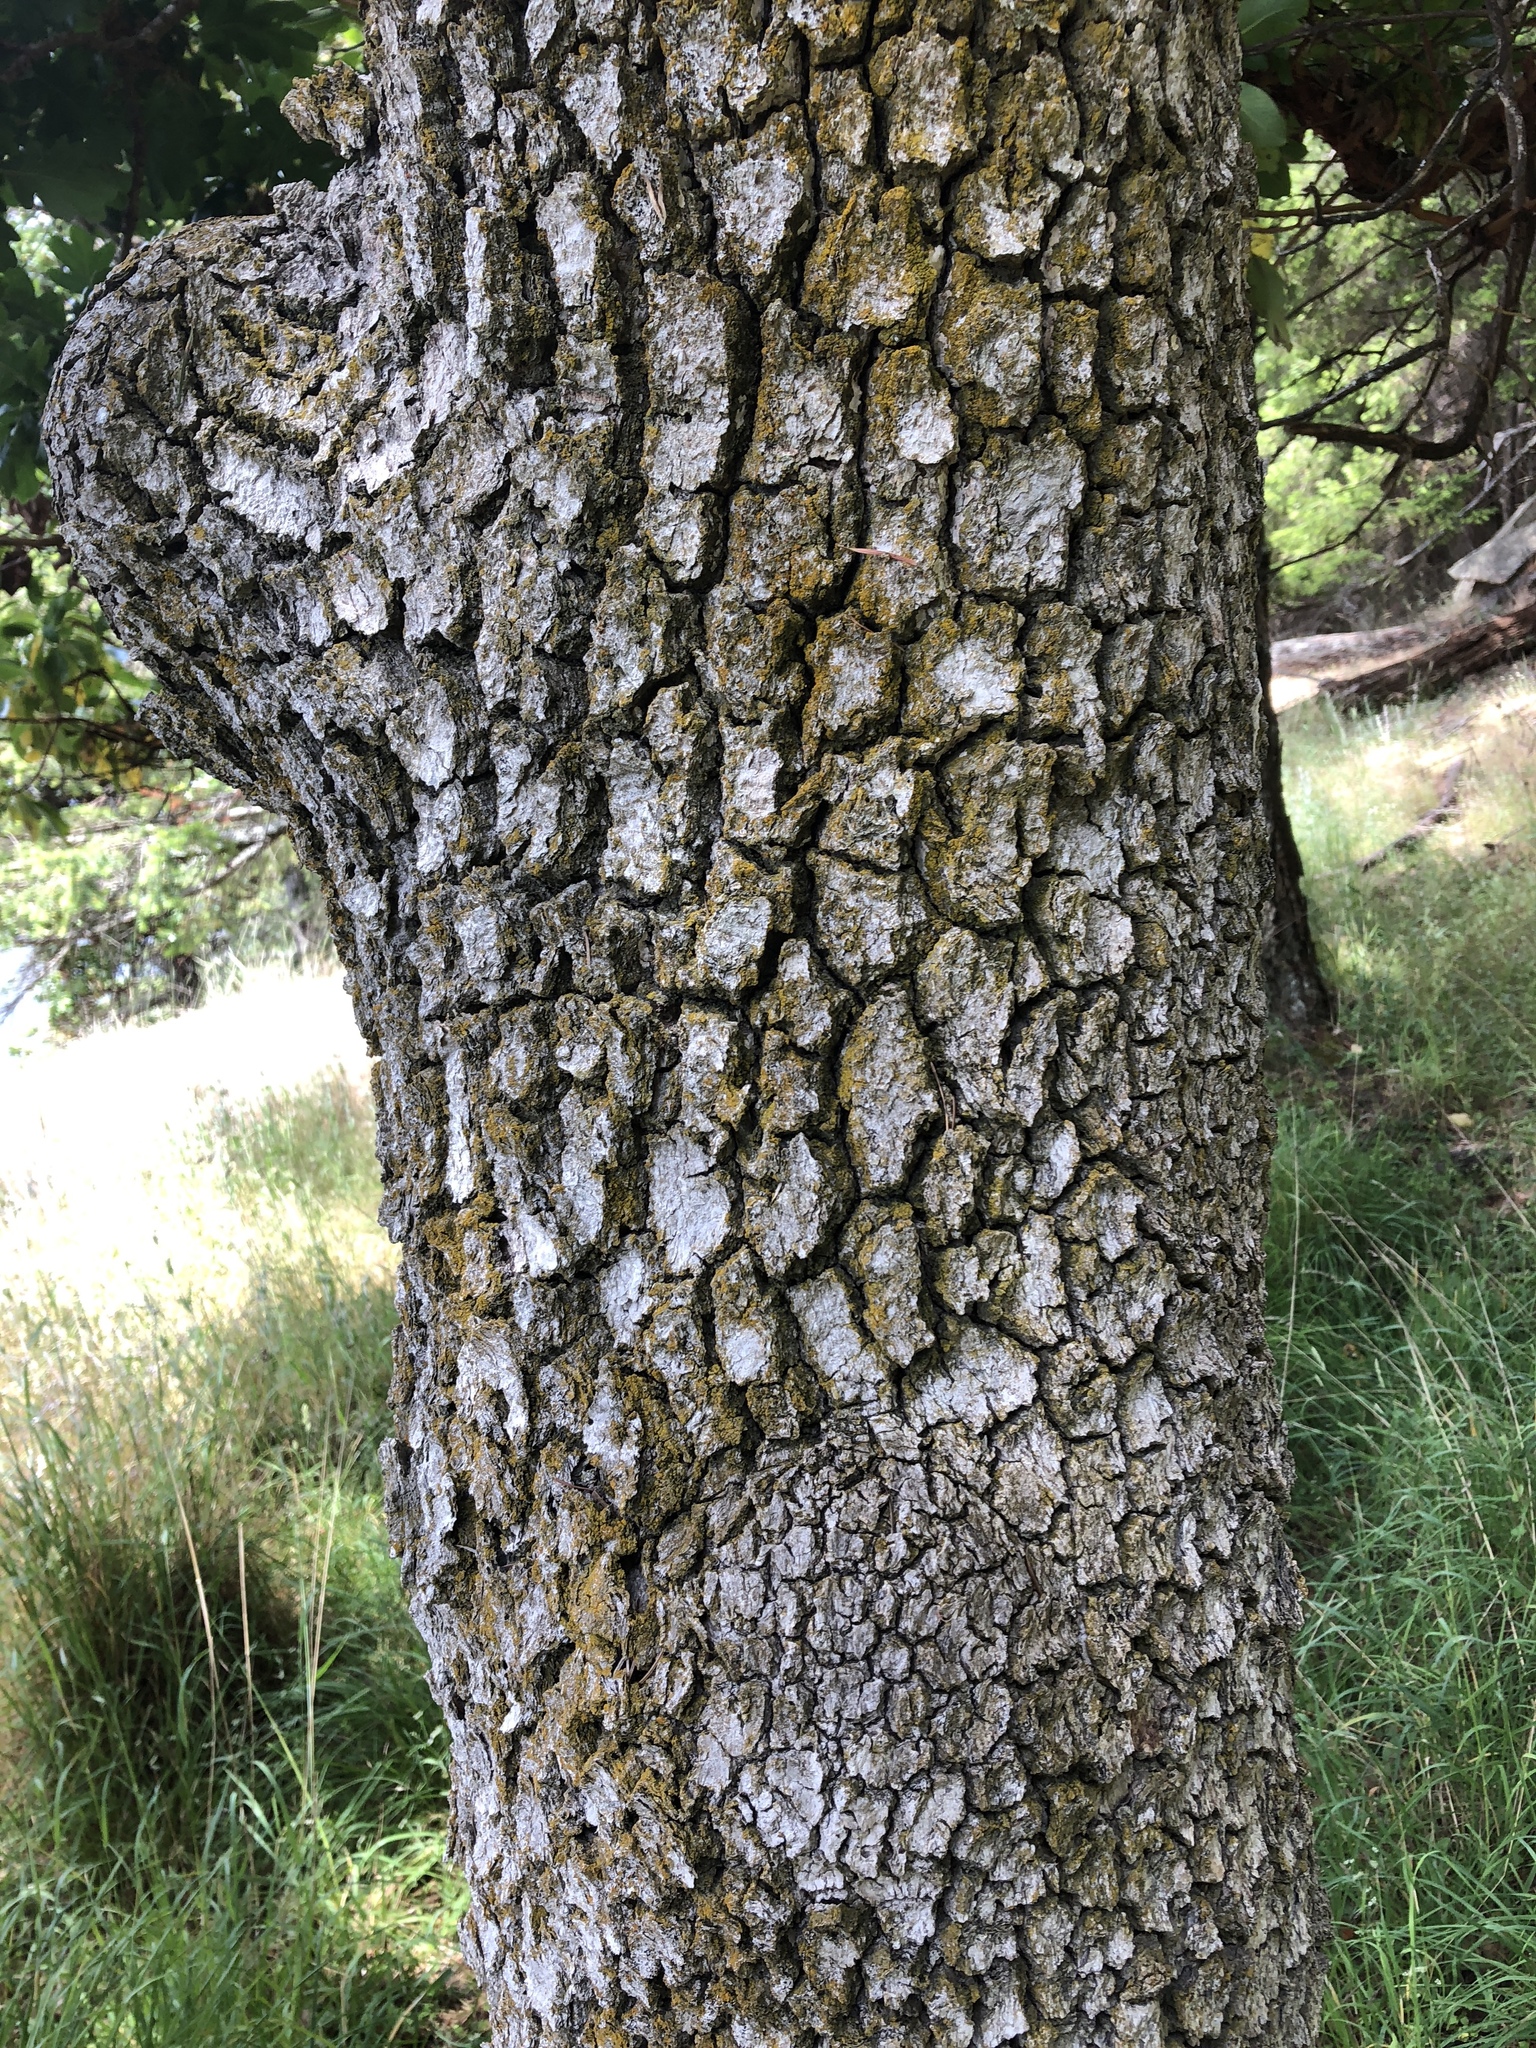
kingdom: Plantae
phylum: Tracheophyta
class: Magnoliopsida
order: Fagales
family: Fagaceae
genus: Quercus
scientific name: Quercus garryana
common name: Garry oak
